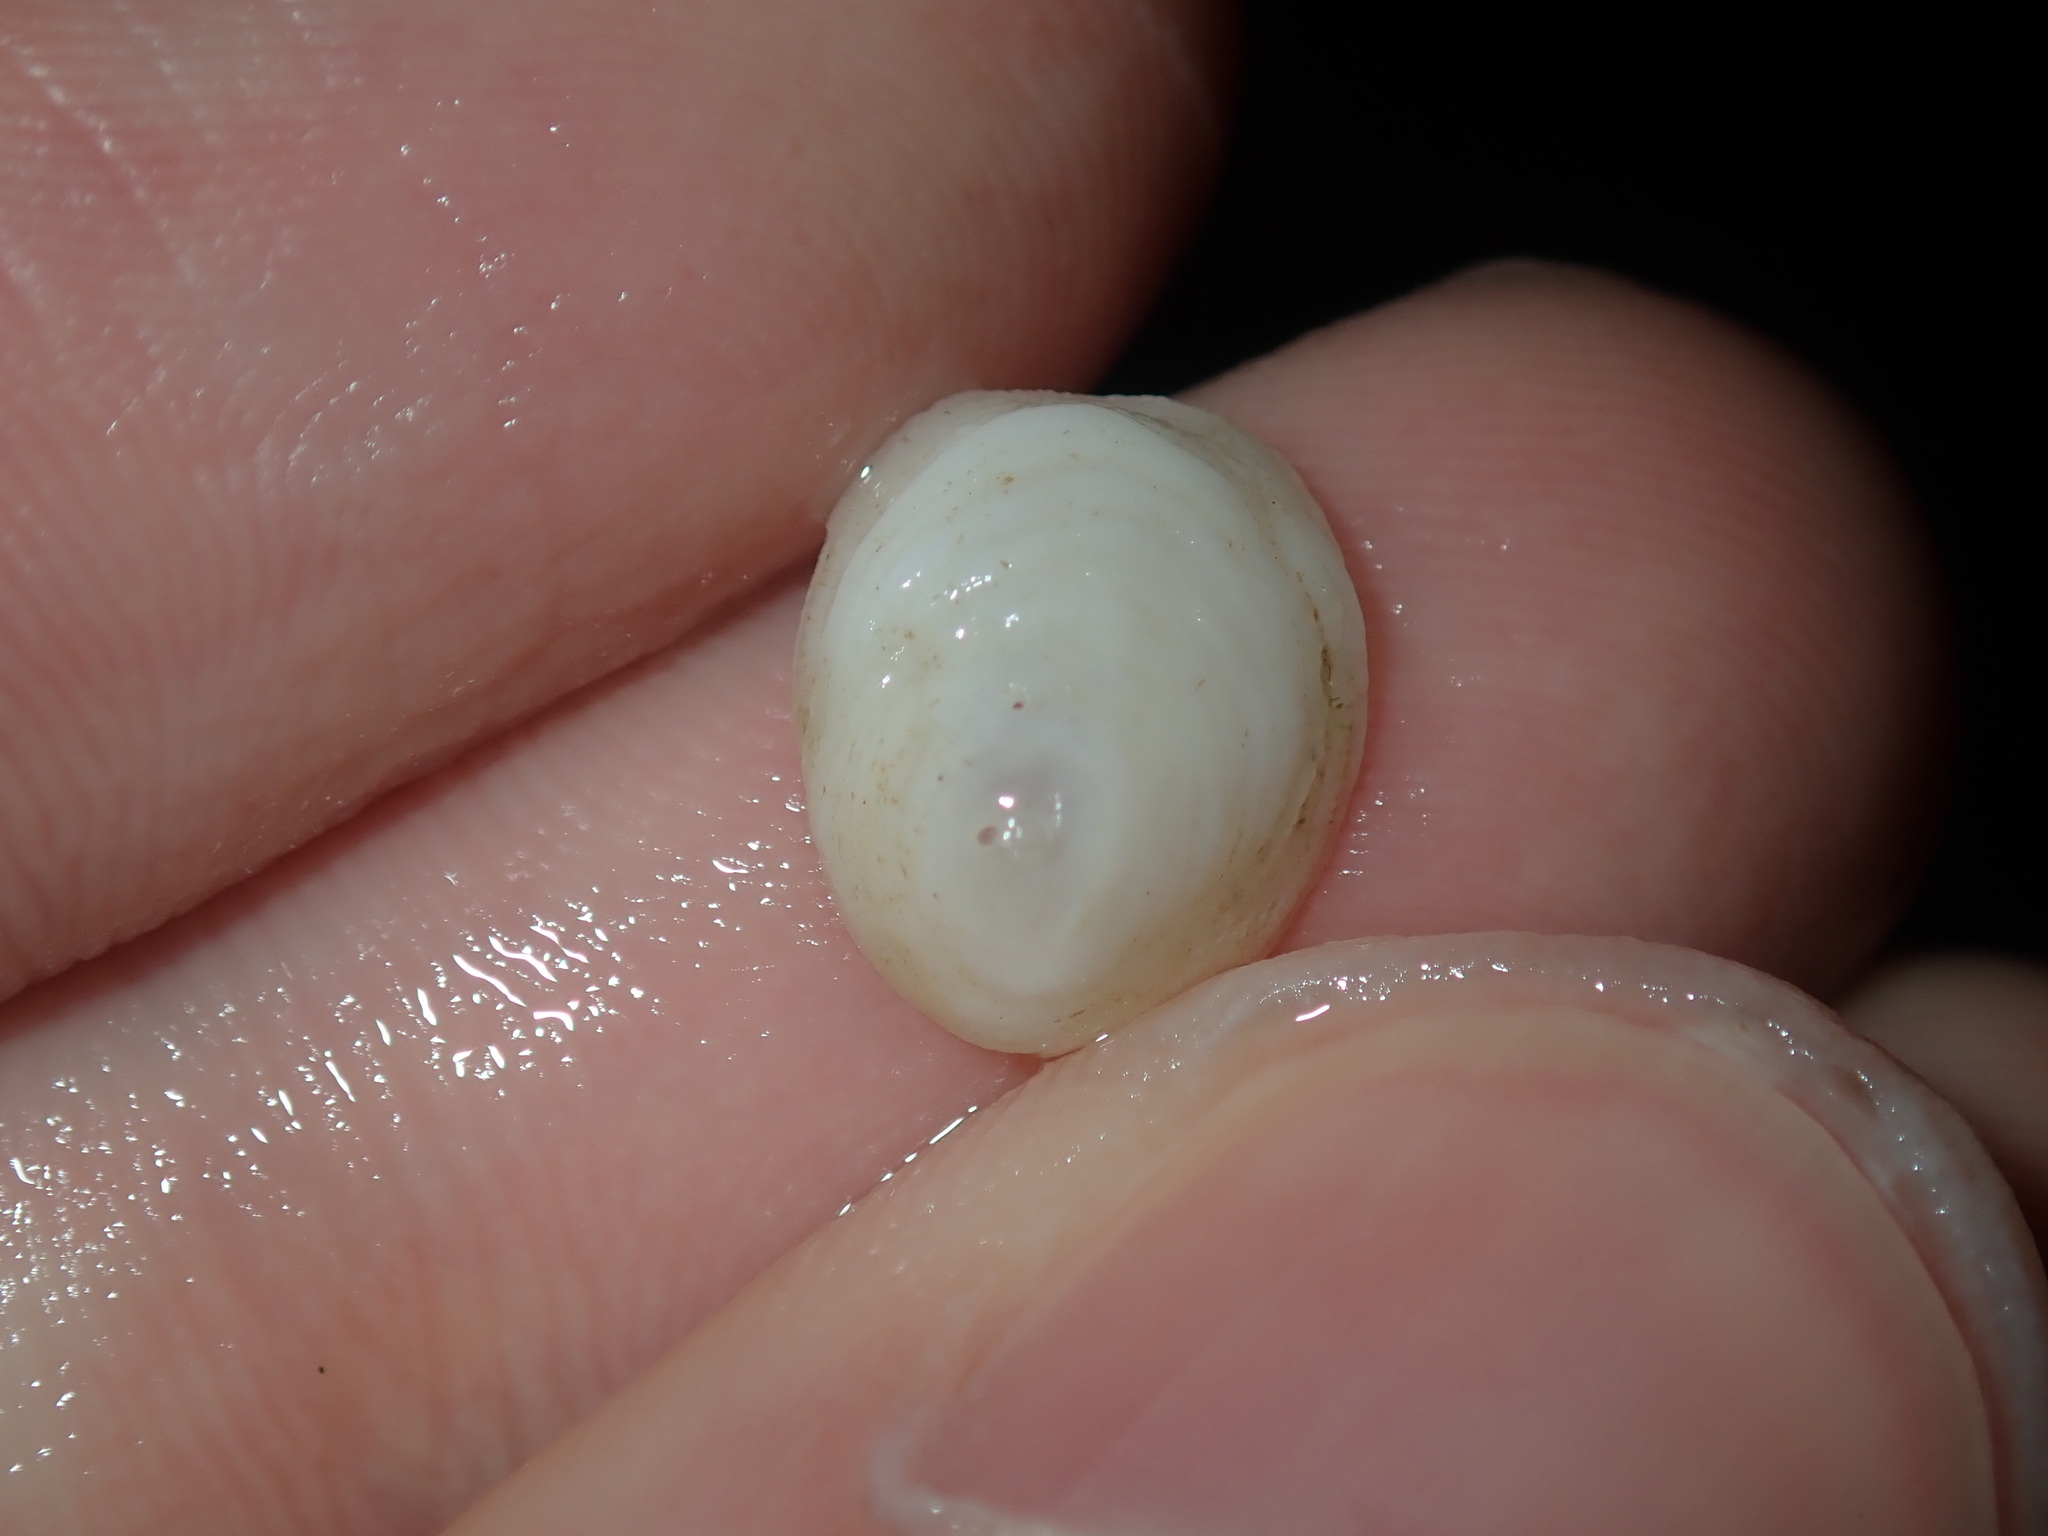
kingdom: Animalia
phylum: Mollusca
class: Gastropoda
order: Littorinimorpha
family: Hipponicidae
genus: Antisabia
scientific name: Antisabia foliacea
